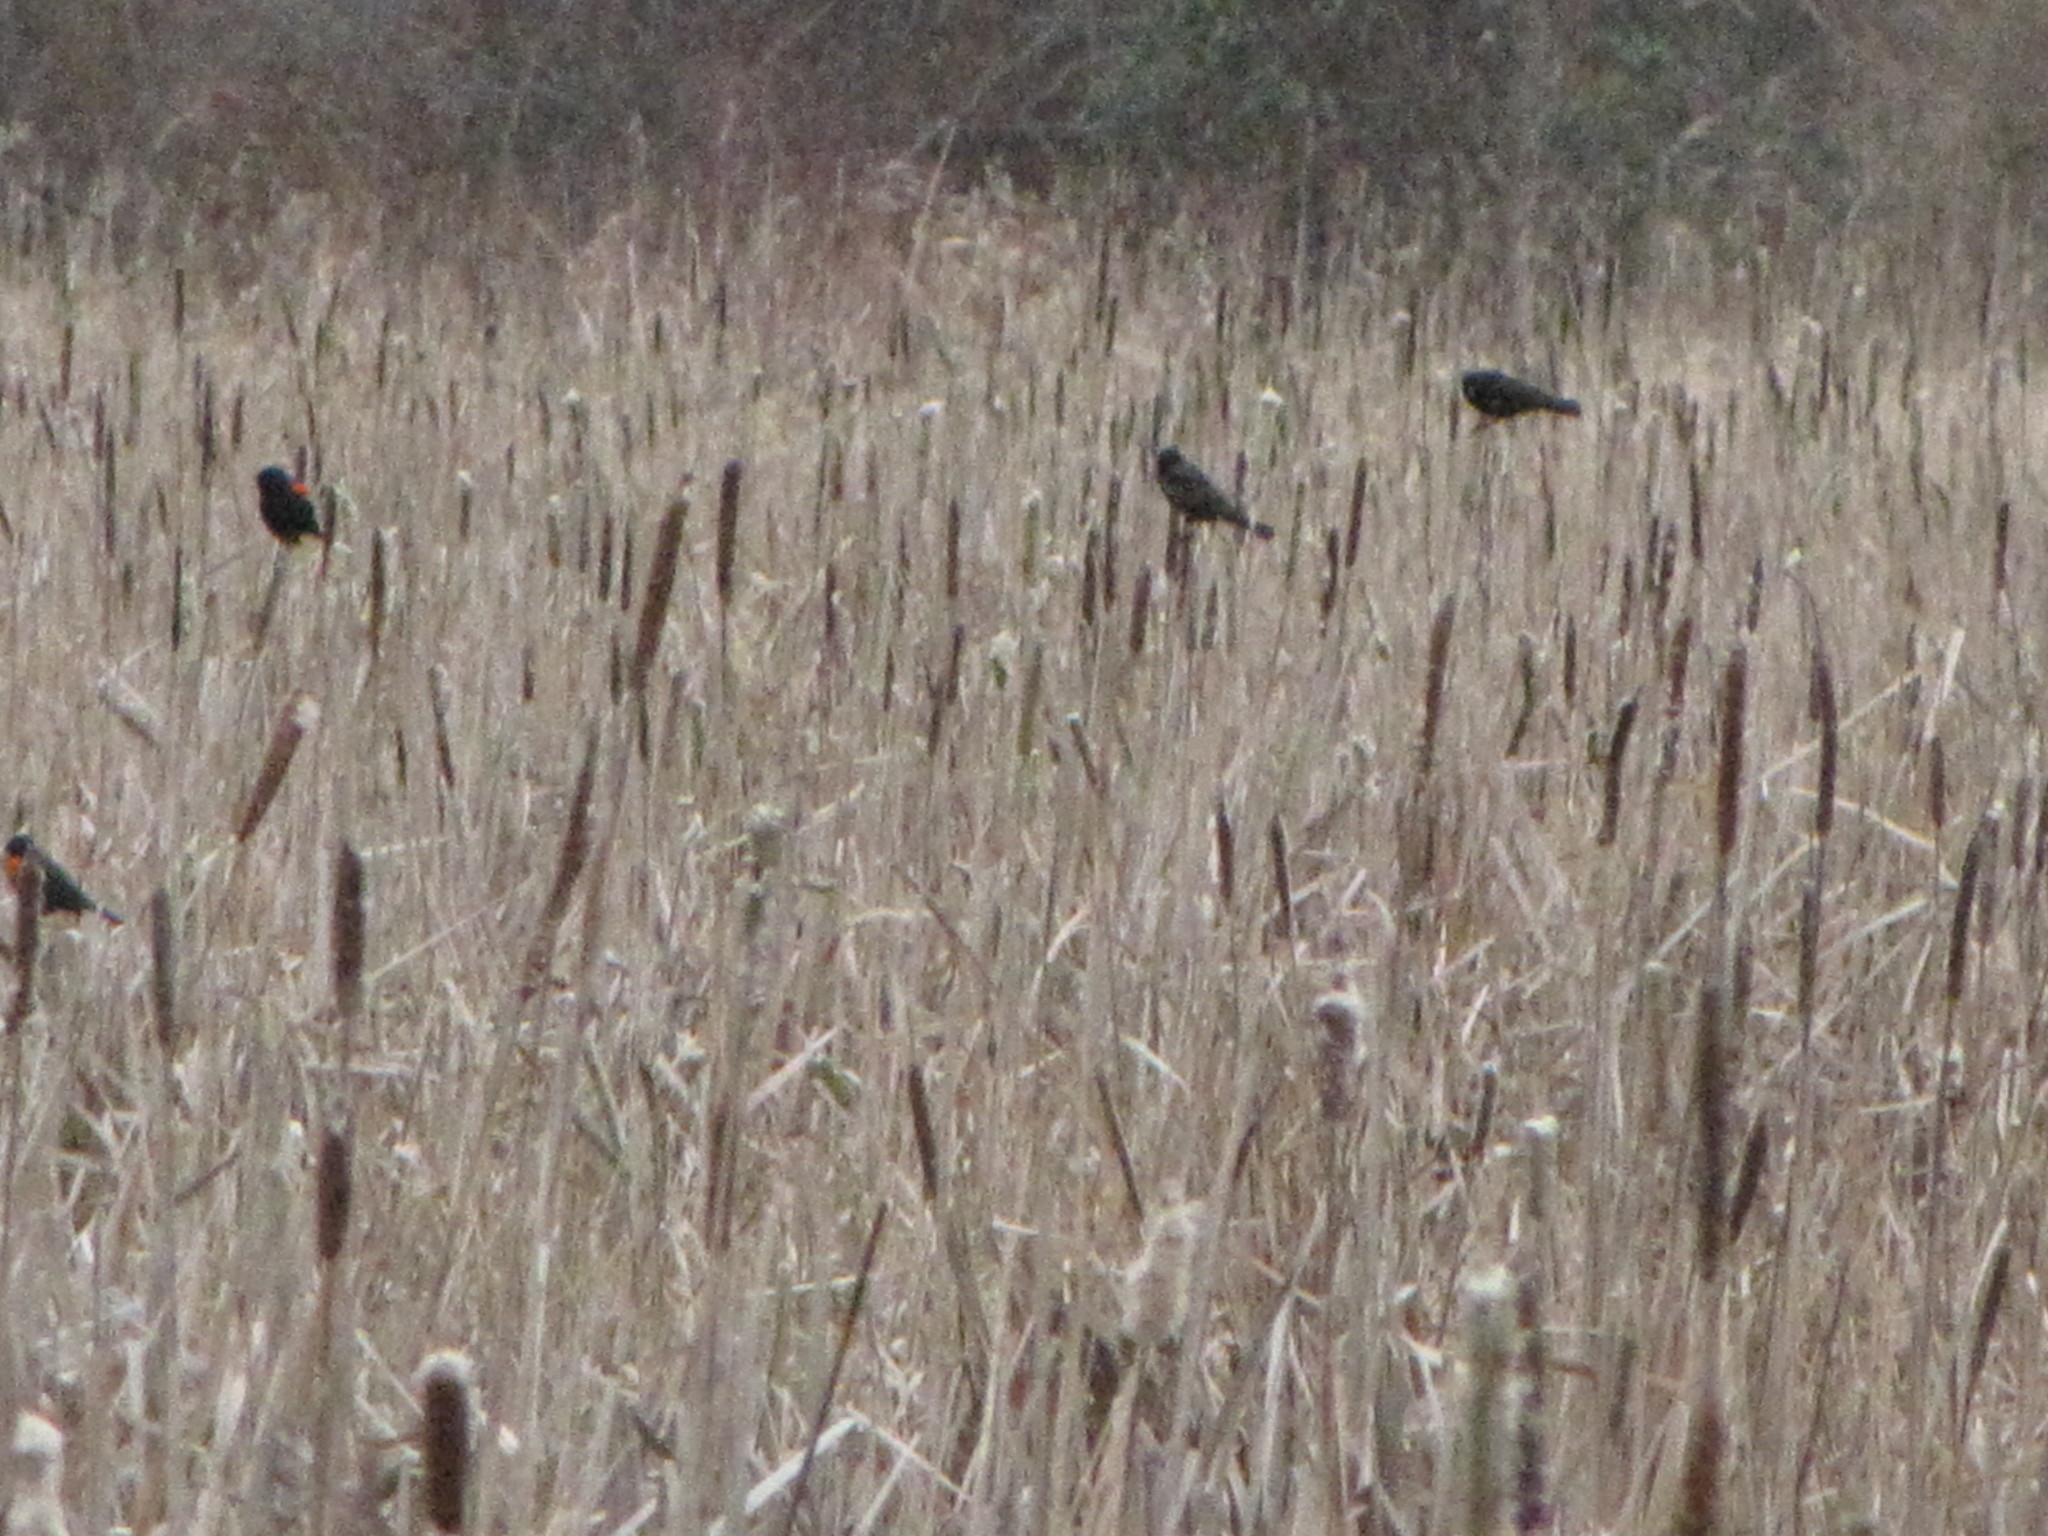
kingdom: Animalia
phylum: Chordata
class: Aves
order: Passeriformes
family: Icteridae
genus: Agelaius
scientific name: Agelaius phoeniceus
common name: Red-winged blackbird
